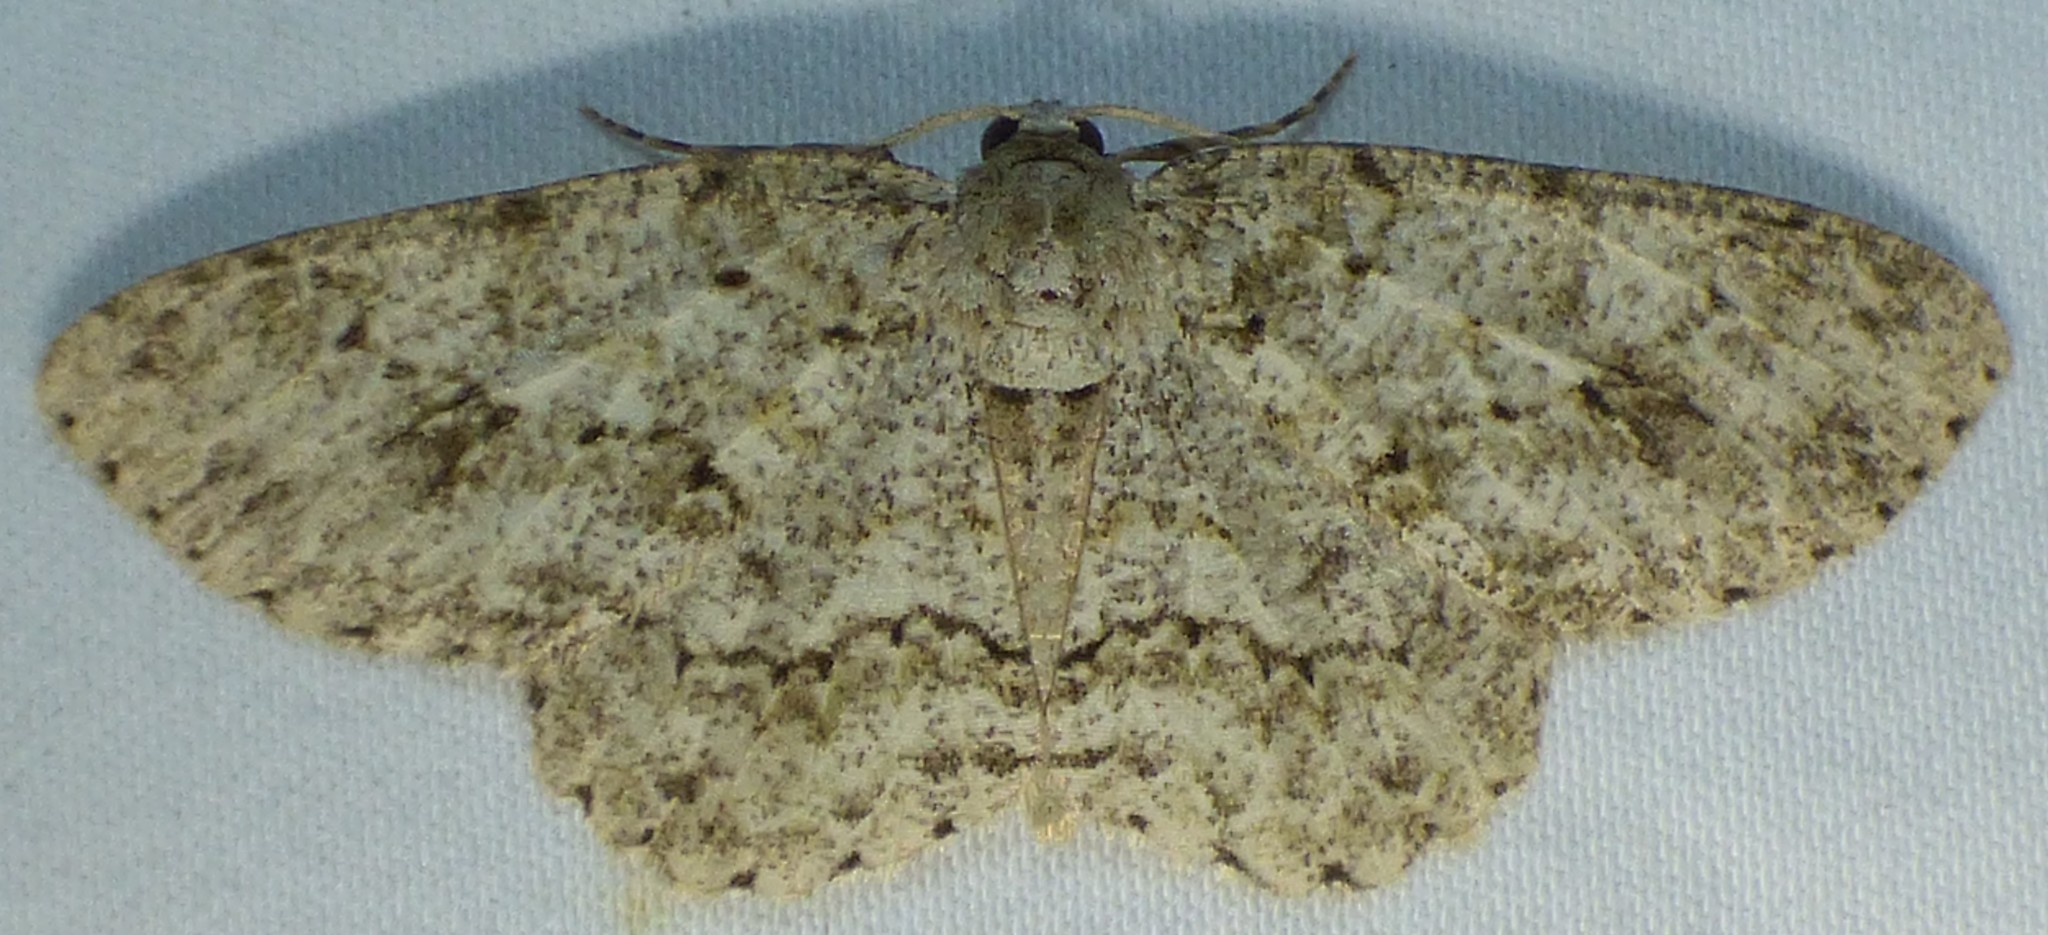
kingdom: Animalia
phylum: Arthropoda
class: Insecta
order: Lepidoptera
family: Geometridae
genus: Ectropis
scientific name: Ectropis crepuscularia
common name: Engrailed
